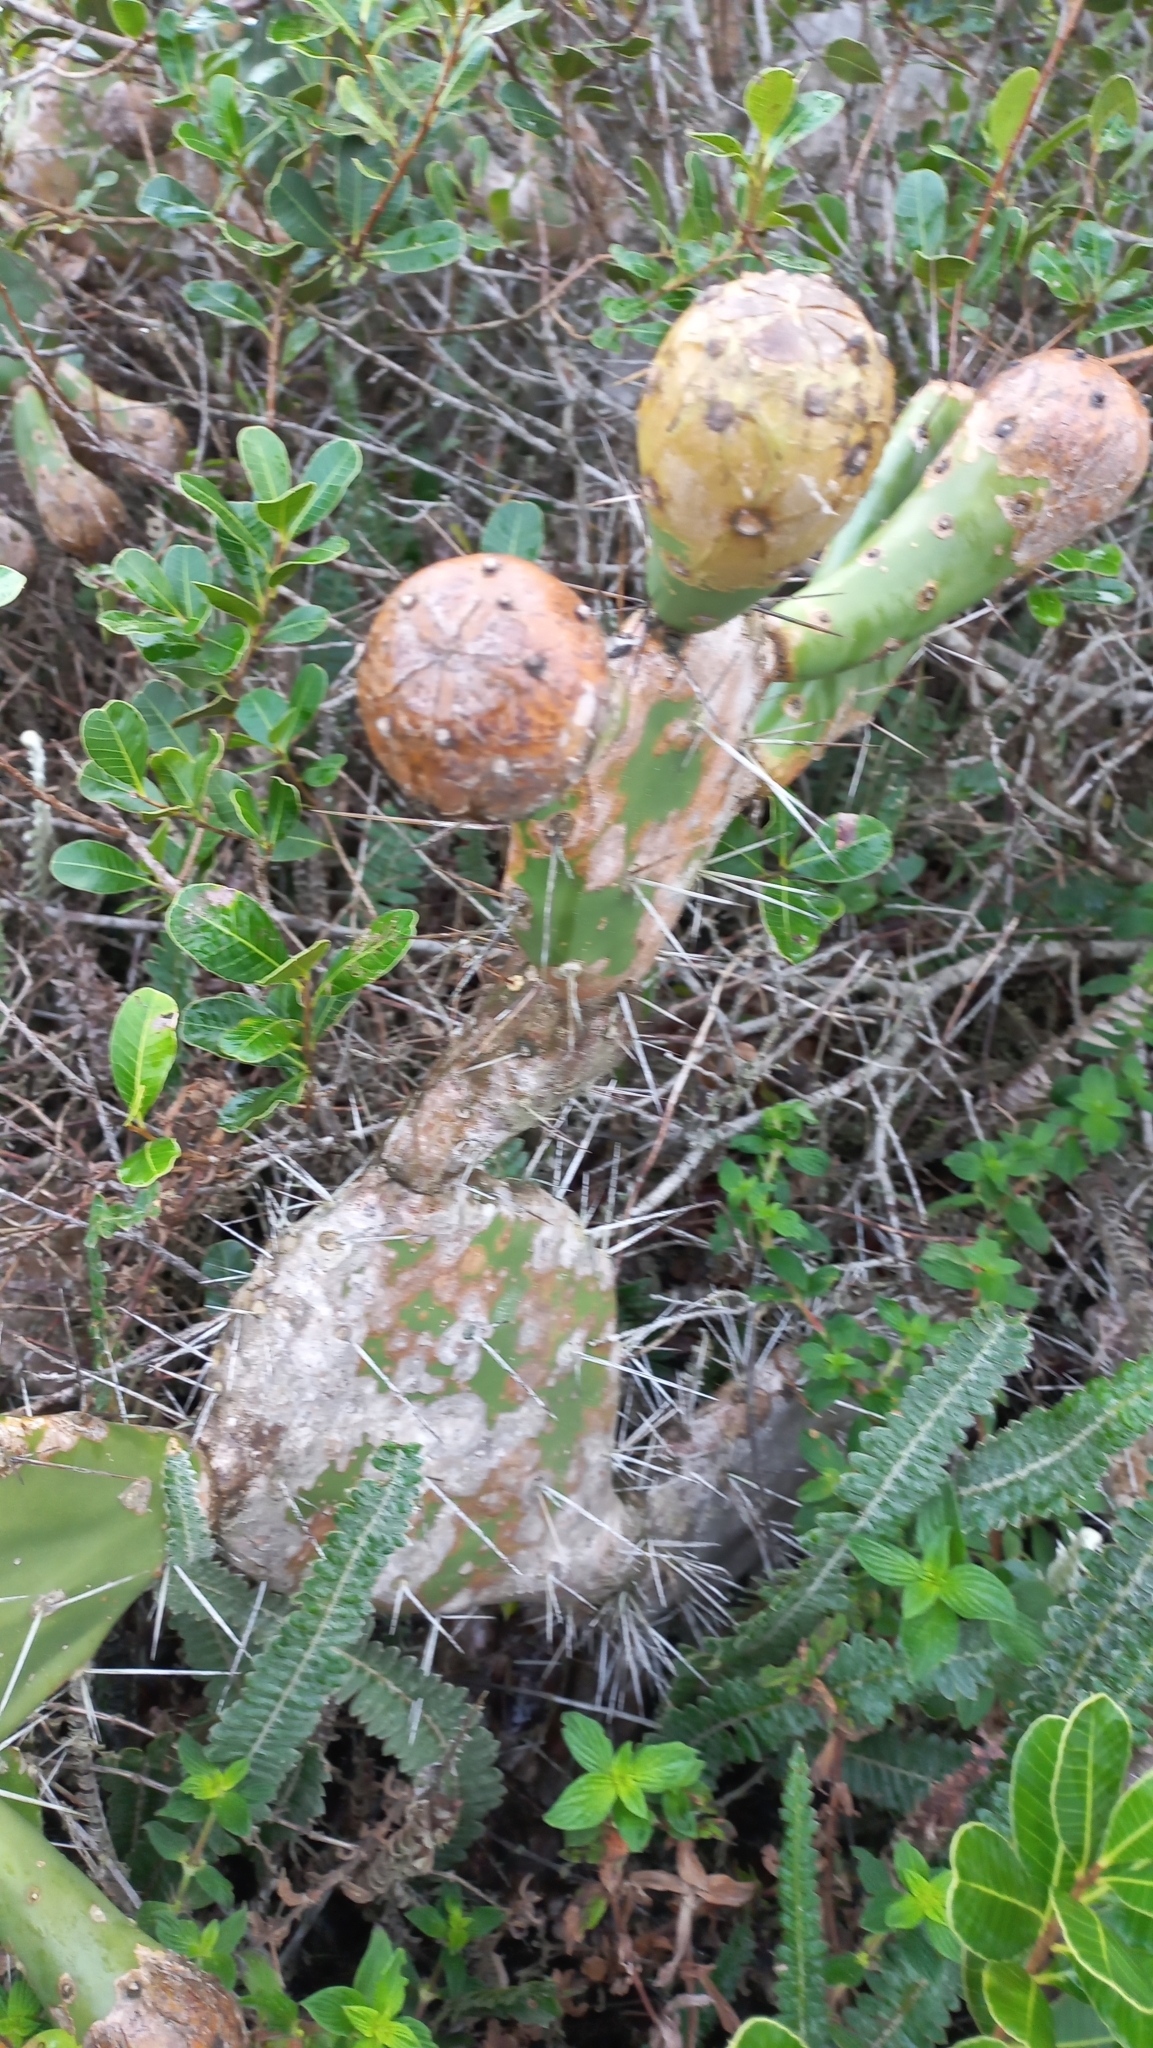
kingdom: Plantae
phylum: Tracheophyta
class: Magnoliopsida
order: Caryophyllales
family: Cactaceae
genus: Opuntia
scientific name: Opuntia monacantha
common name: Common pricklypear
